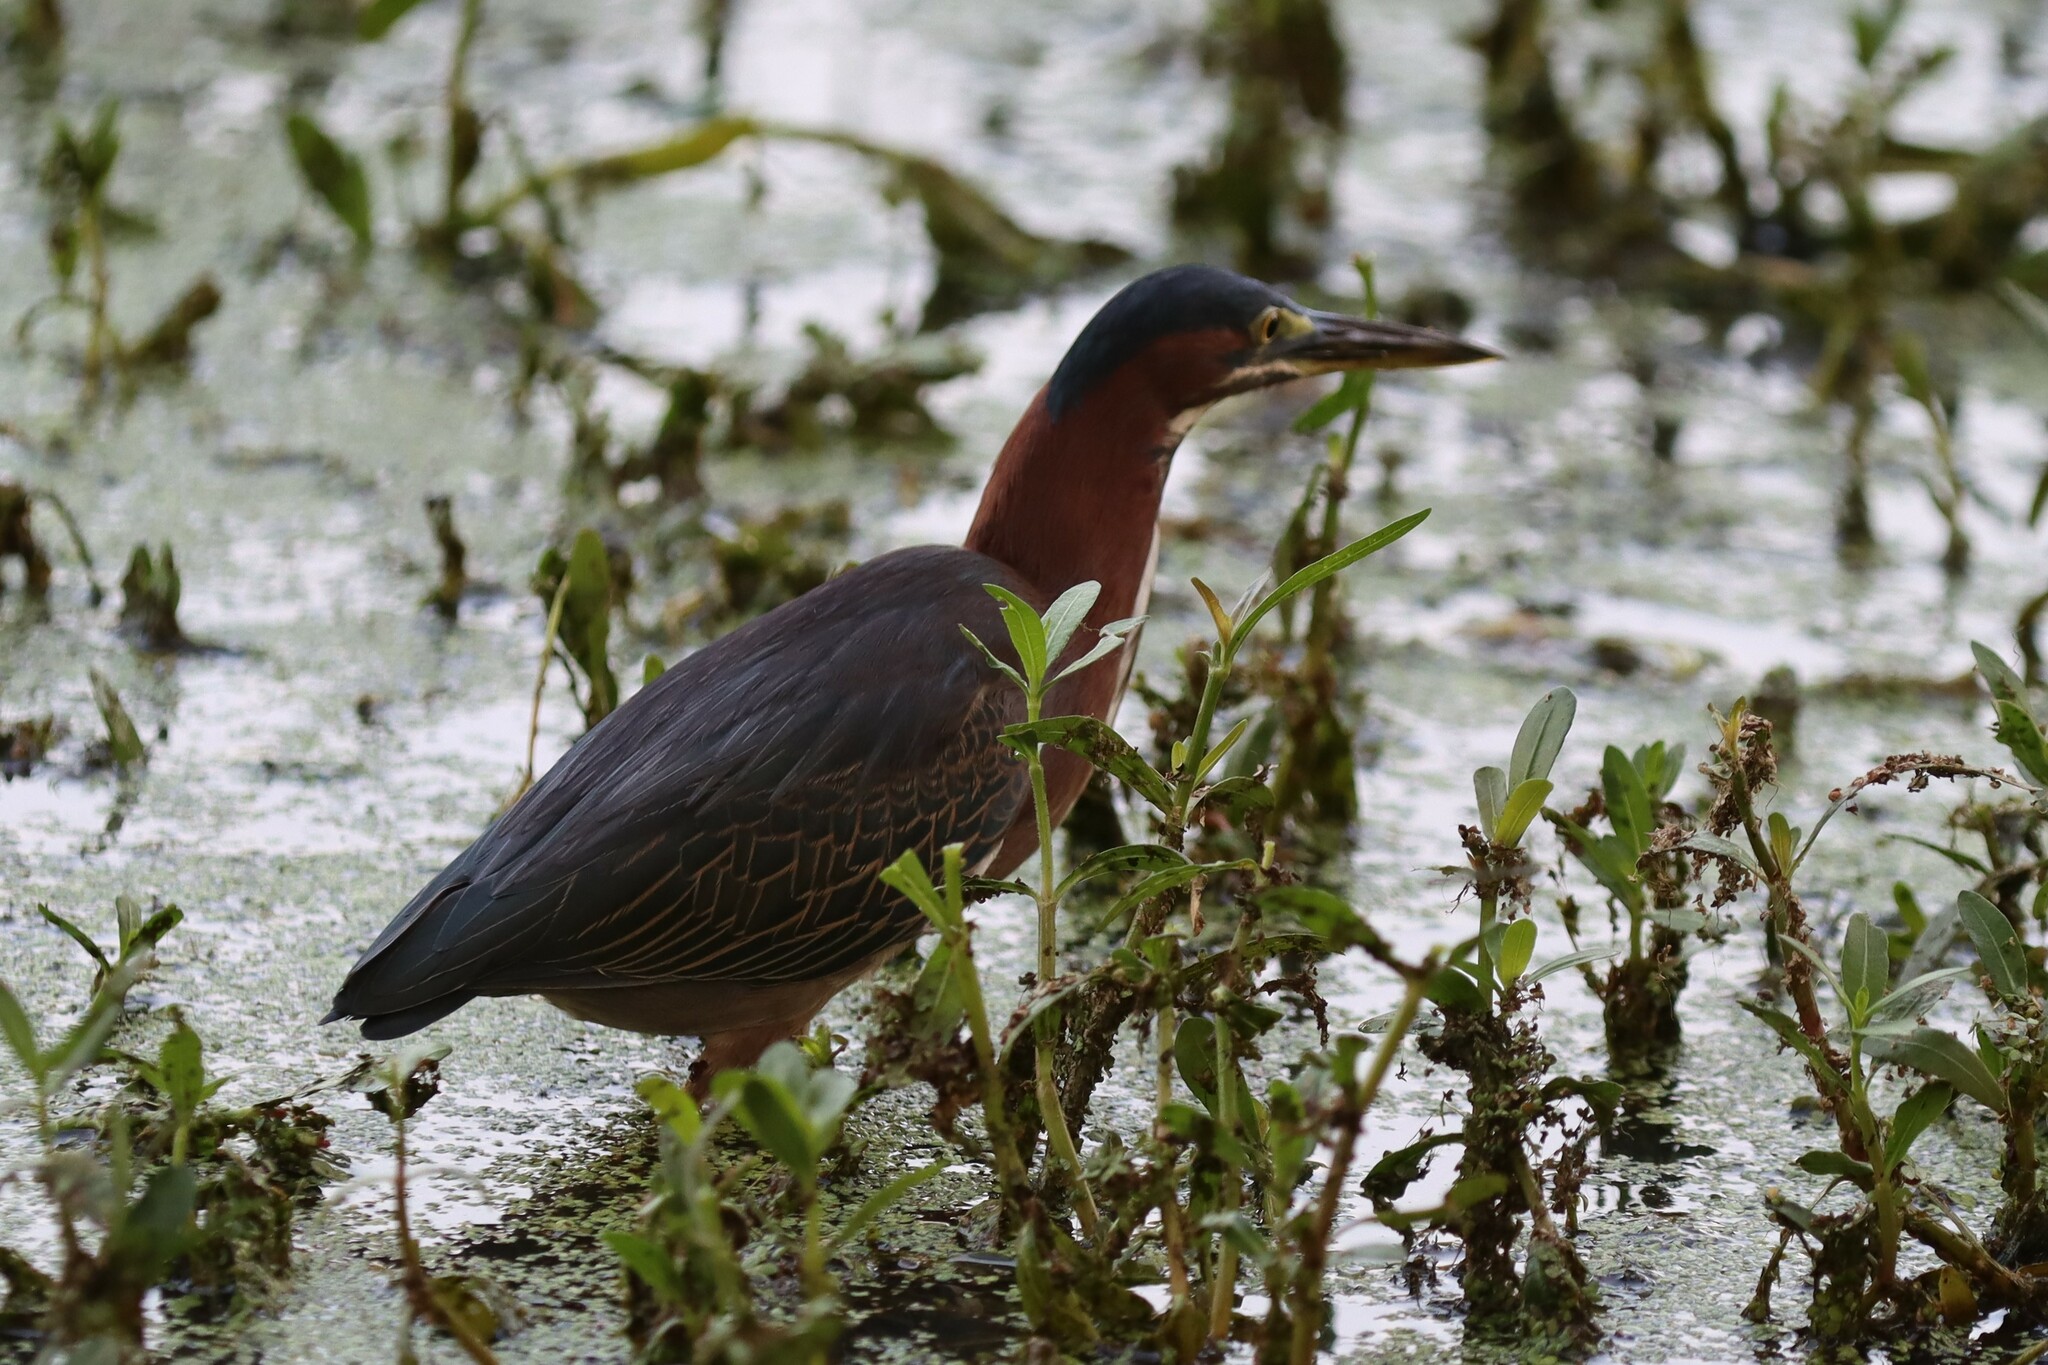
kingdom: Animalia
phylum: Chordata
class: Aves
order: Pelecaniformes
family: Ardeidae
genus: Butorides
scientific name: Butorides virescens
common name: Green heron
